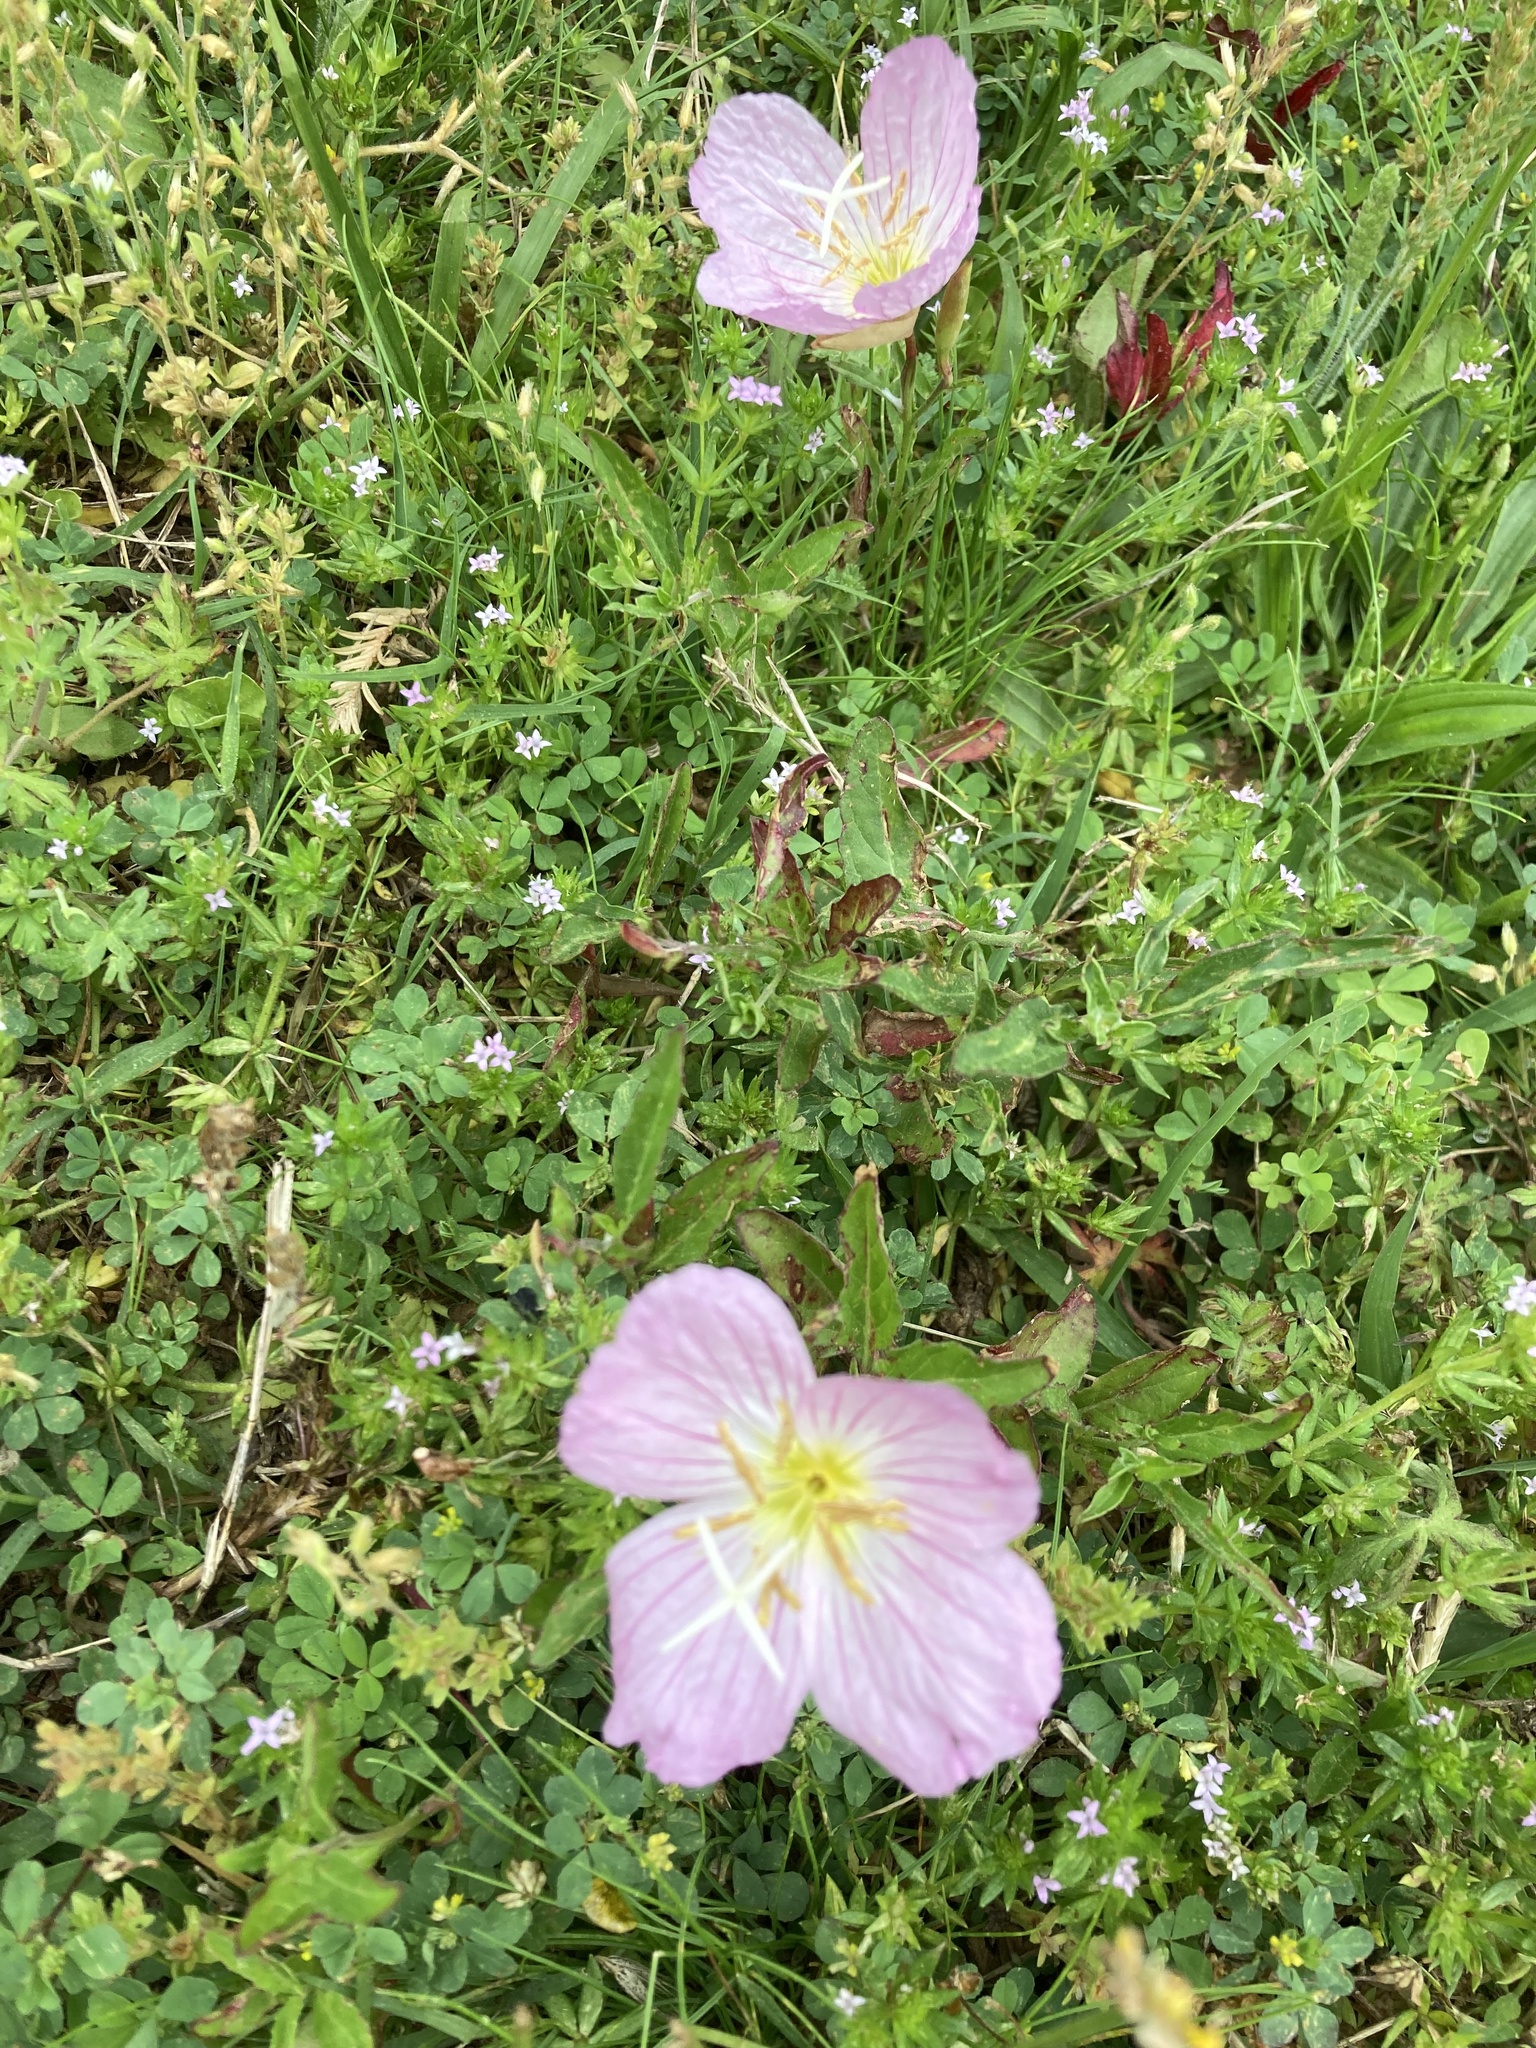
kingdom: Plantae
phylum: Tracheophyta
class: Magnoliopsida
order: Myrtales
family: Onagraceae
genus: Oenothera
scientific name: Oenothera speciosa
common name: White evening-primrose
